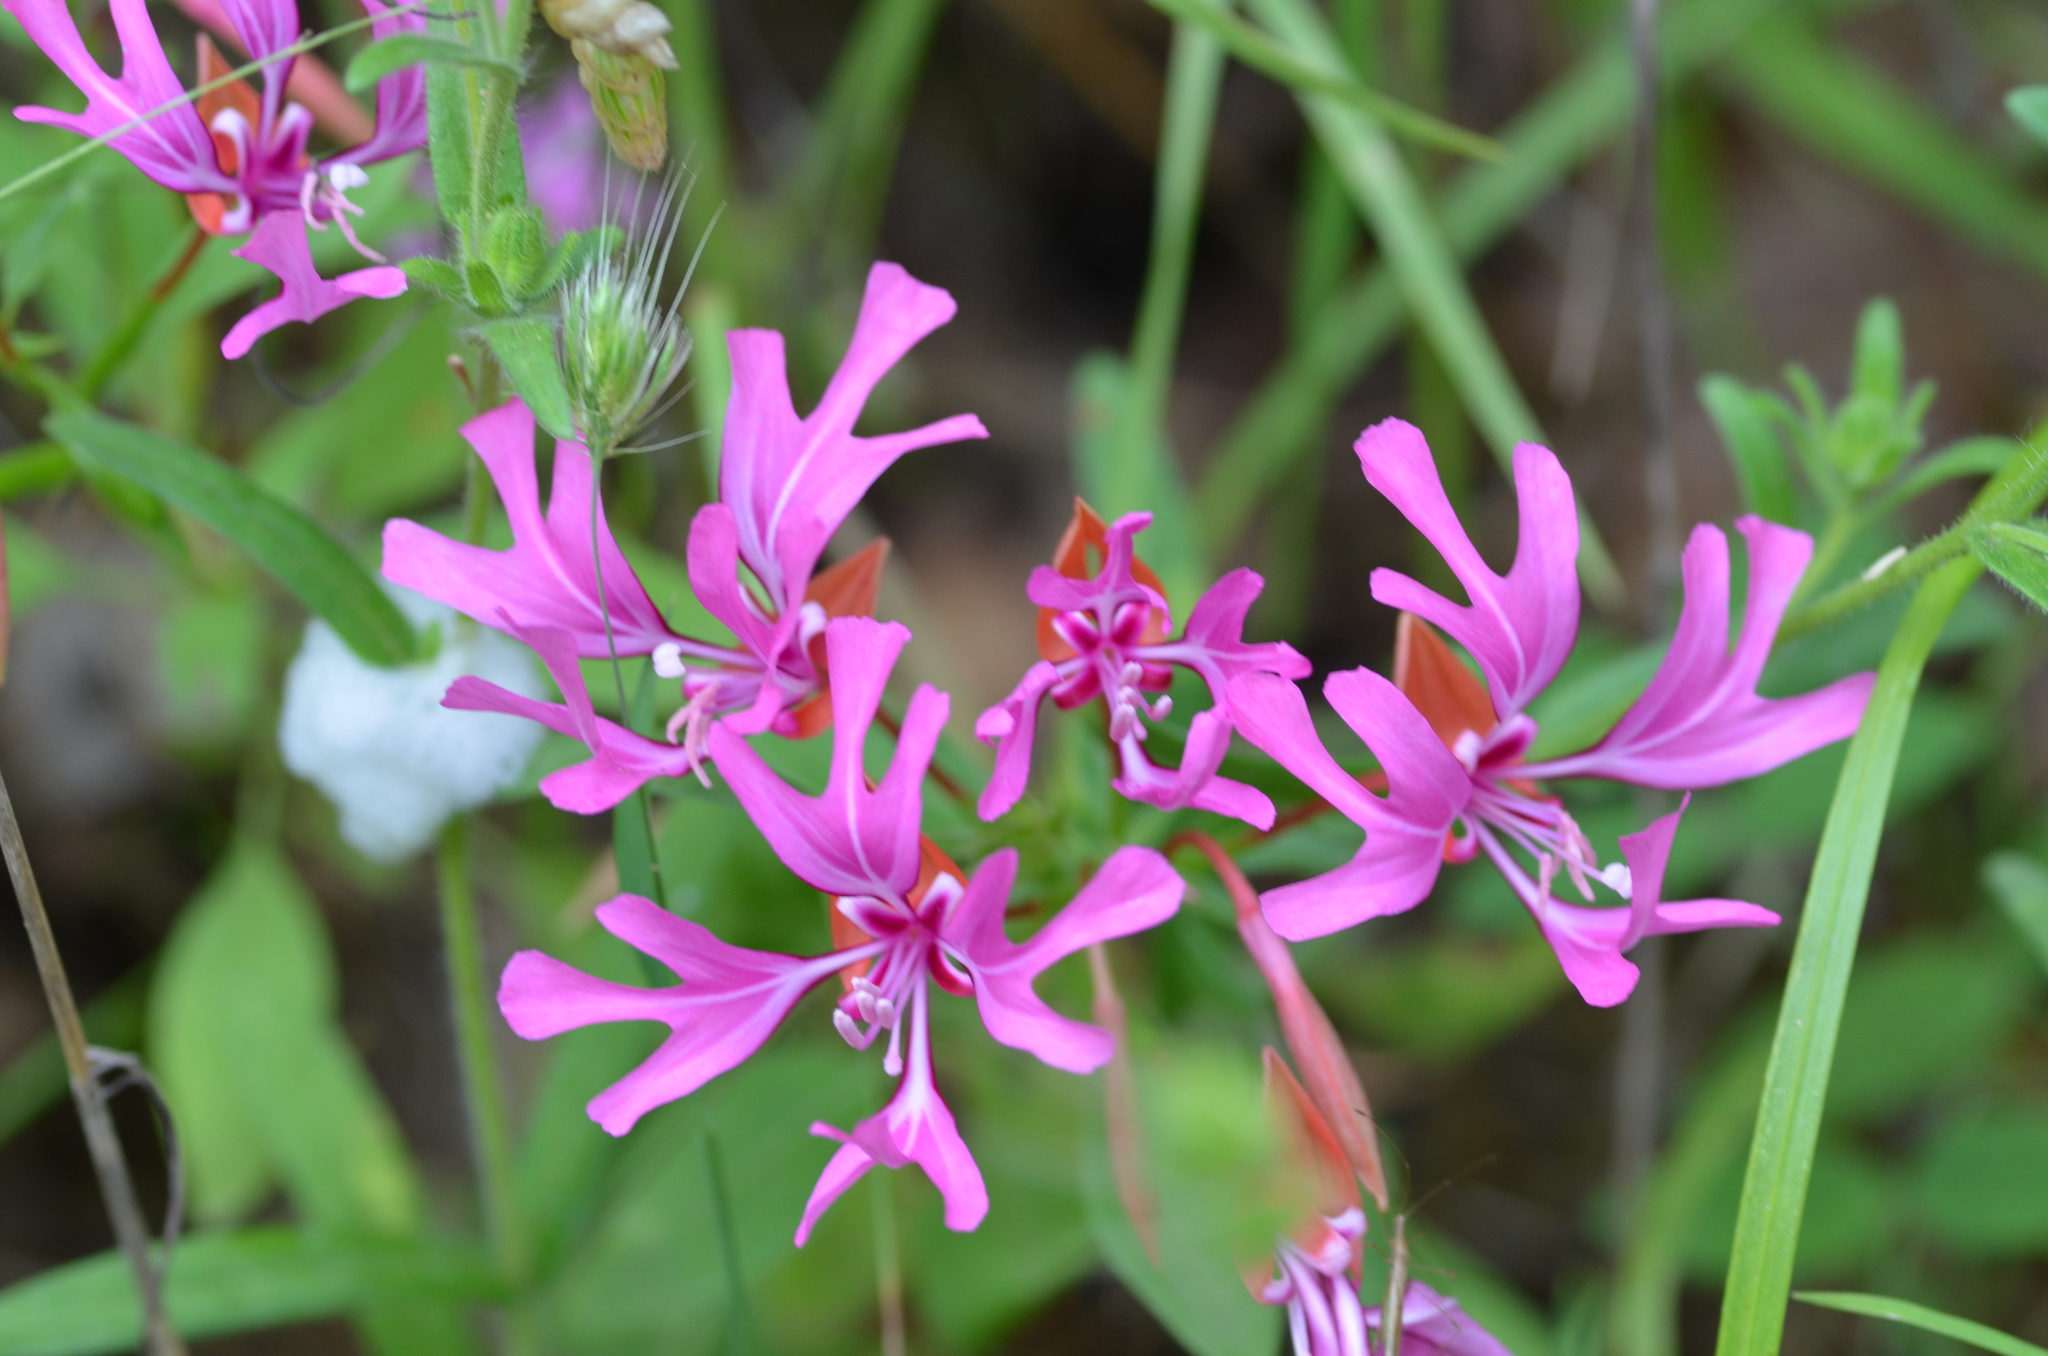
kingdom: Plantae
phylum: Tracheophyta
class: Magnoliopsida
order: Myrtales
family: Onagraceae
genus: Clarkia
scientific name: Clarkia concinna
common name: Red-ribbons
